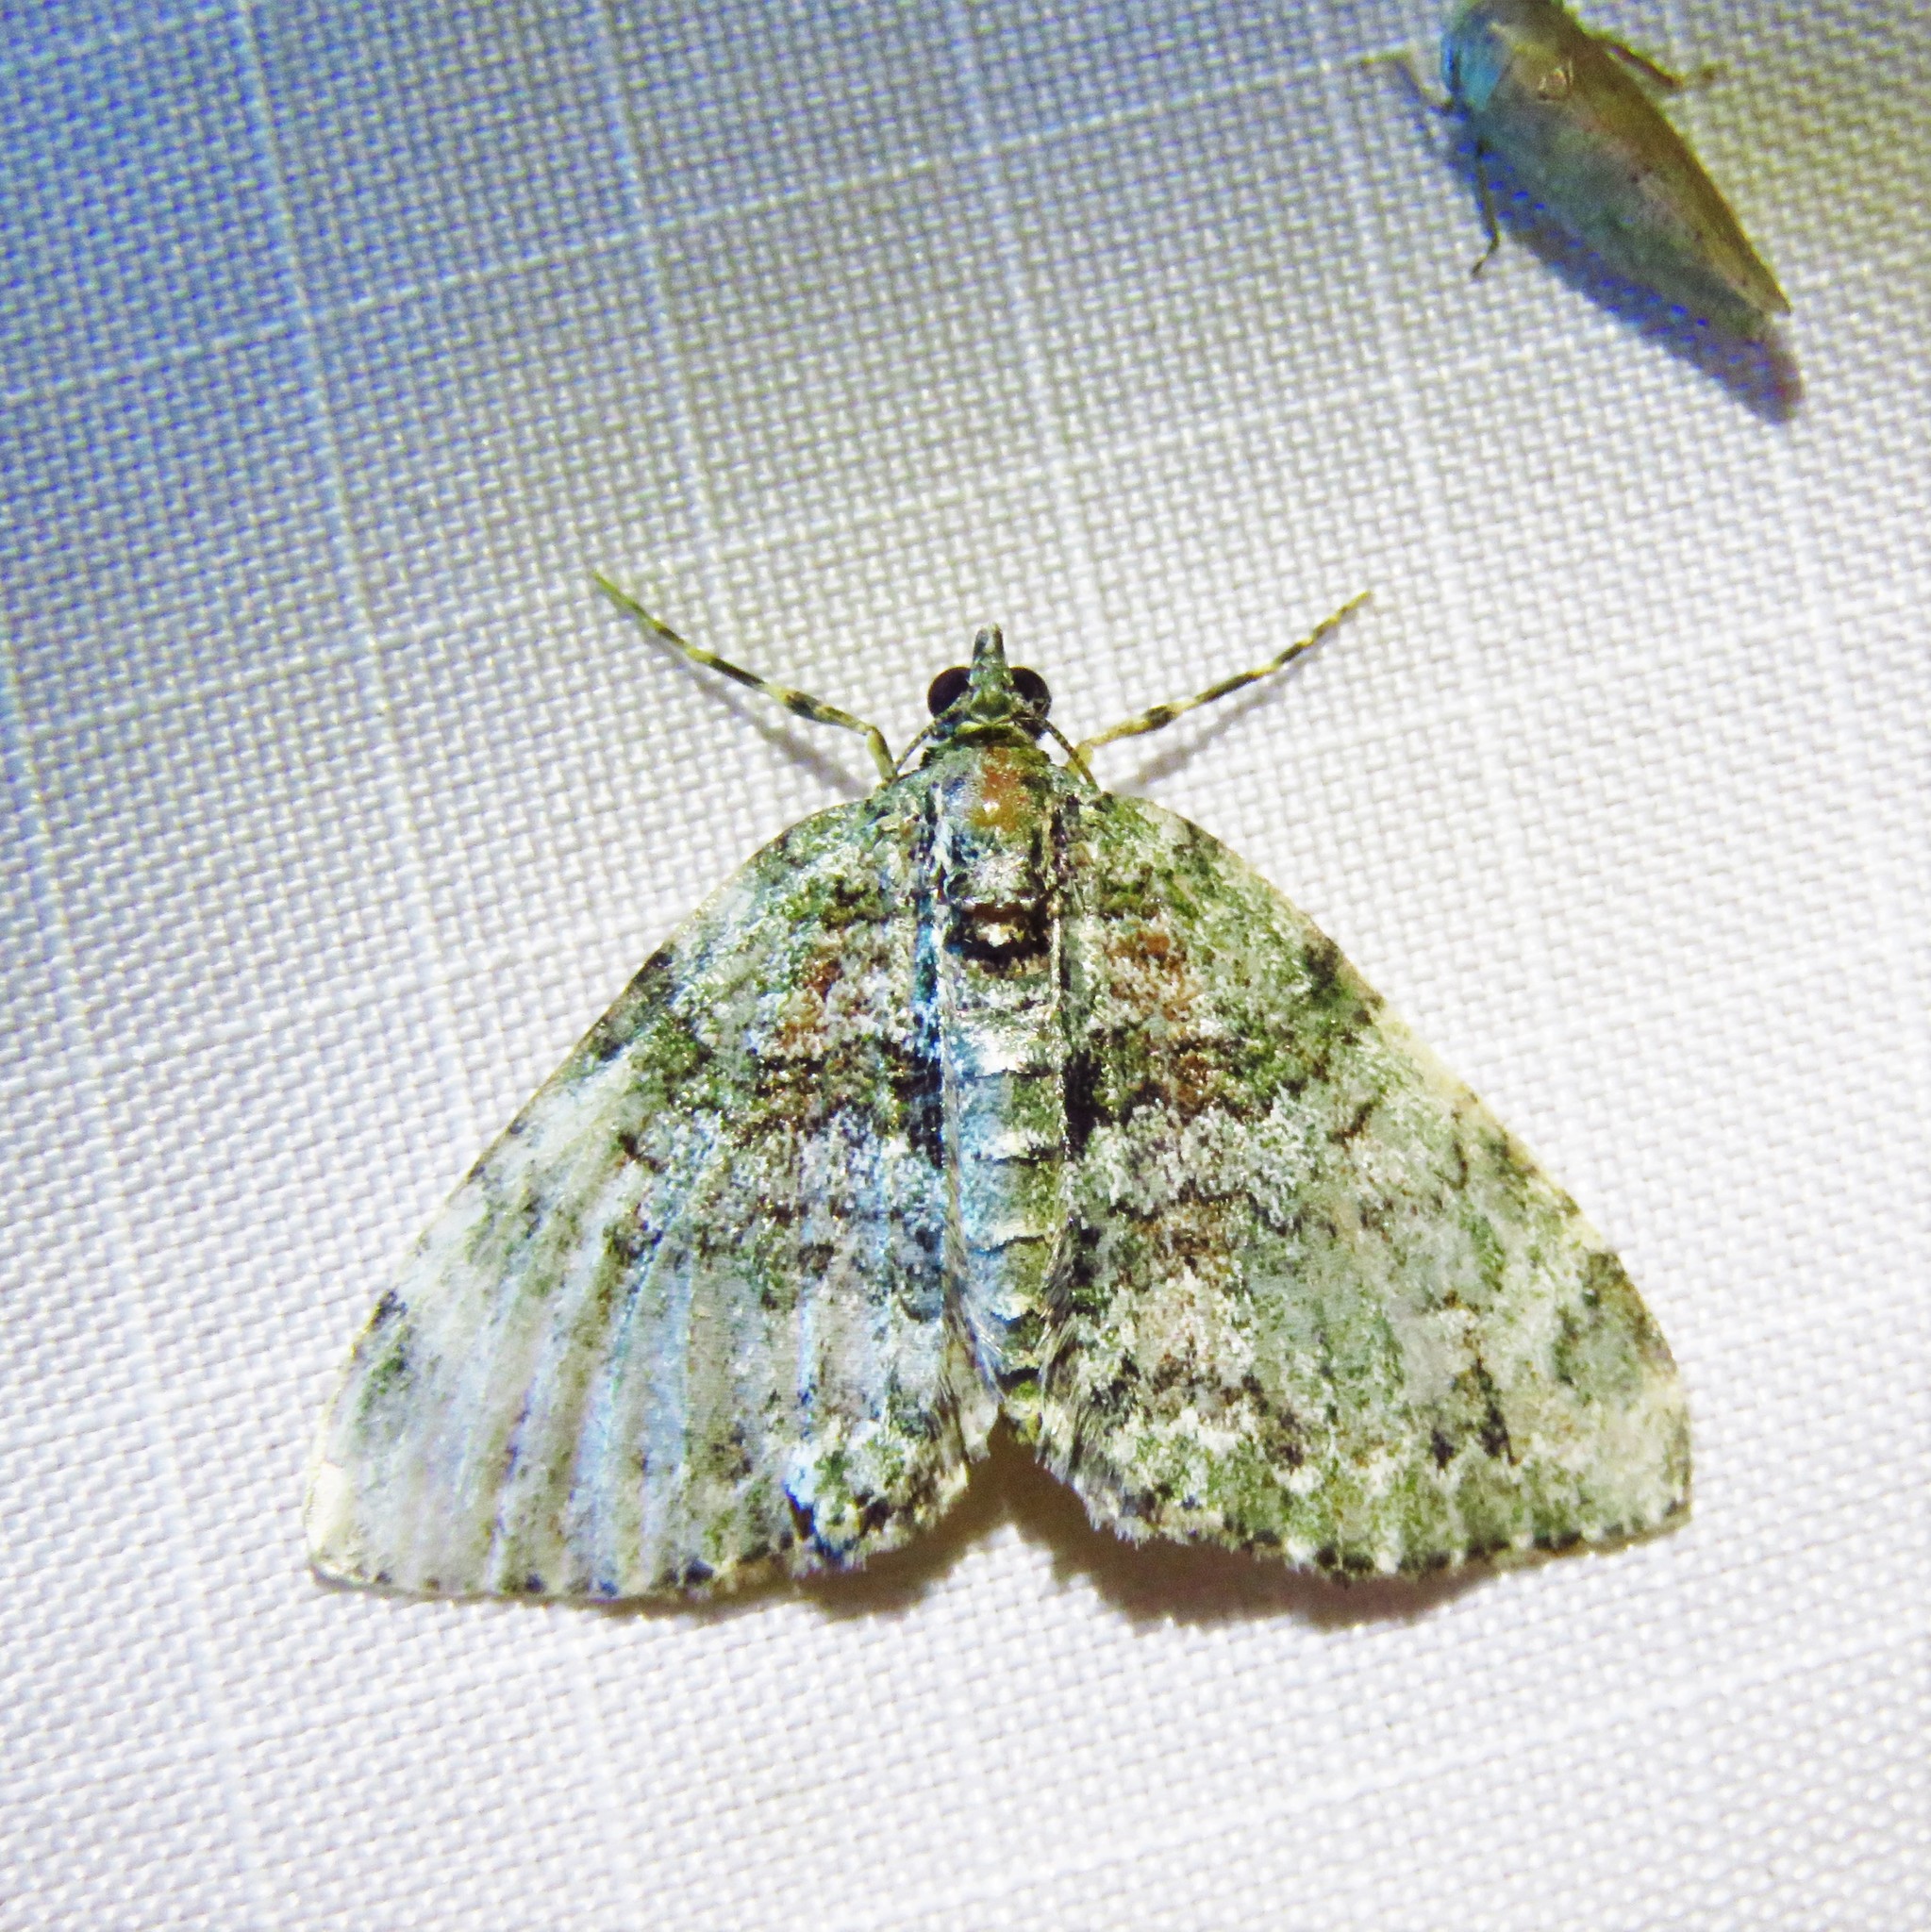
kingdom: Animalia
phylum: Arthropoda
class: Insecta
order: Lepidoptera
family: Geometridae
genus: Hammaptera
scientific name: Hammaptera parinotata
